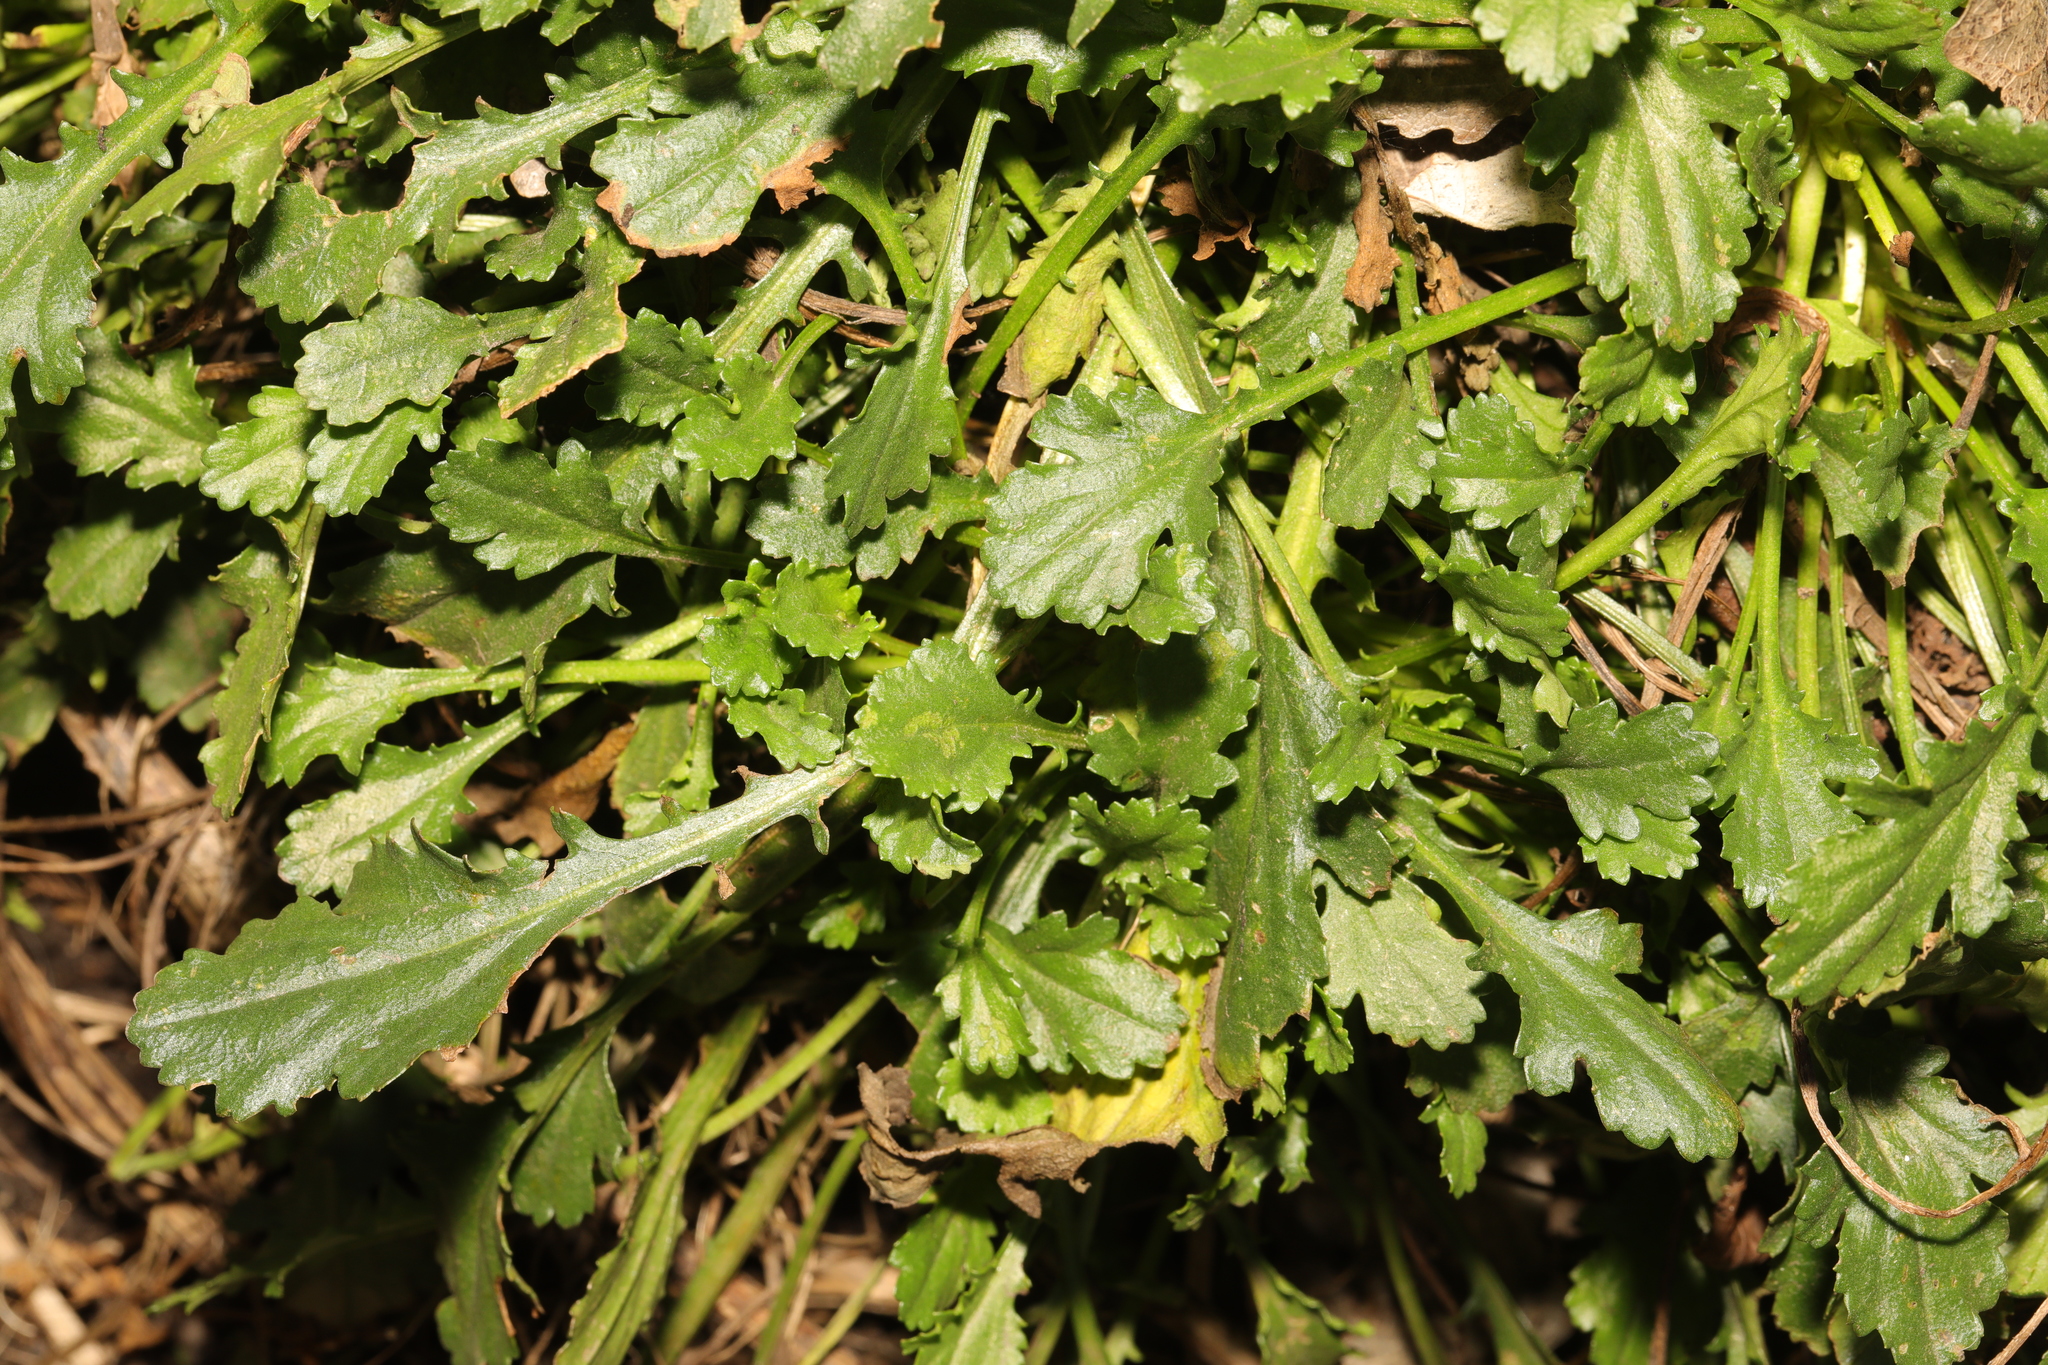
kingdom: Plantae
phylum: Tracheophyta
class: Magnoliopsida
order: Asterales
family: Asteraceae
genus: Leucanthemum
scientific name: Leucanthemum vulgare
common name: Oxeye daisy
